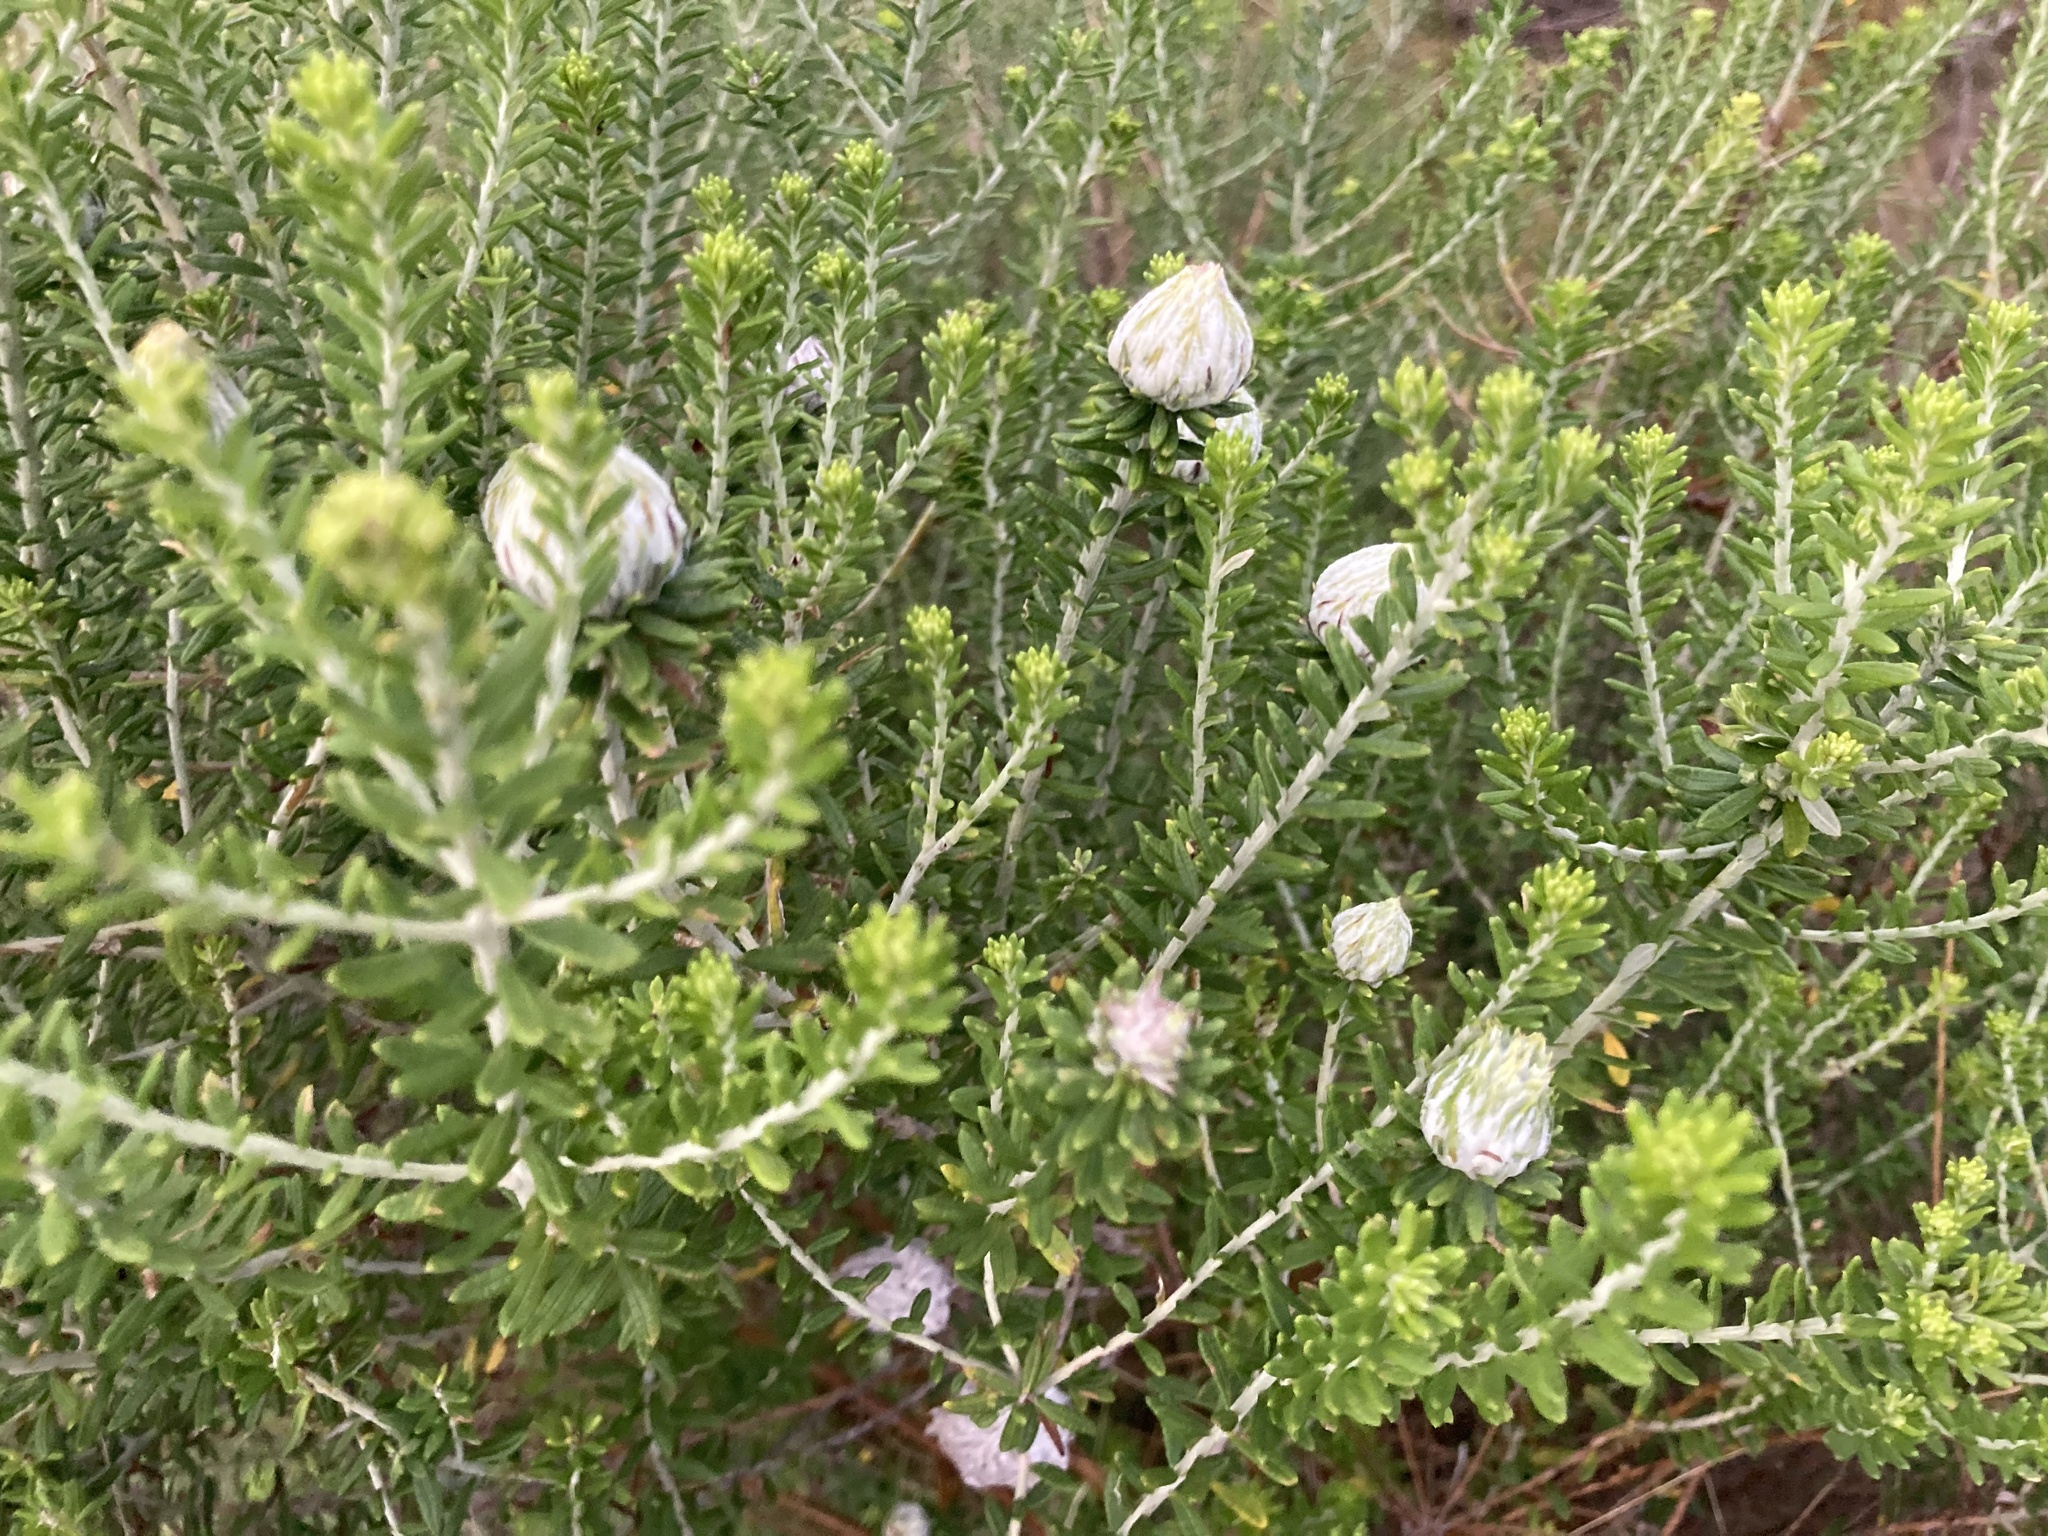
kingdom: Plantae
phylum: Tracheophyta
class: Magnoliopsida
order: Asterales
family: Asteraceae
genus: Helichrysum
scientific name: Helichrysum kraussii
